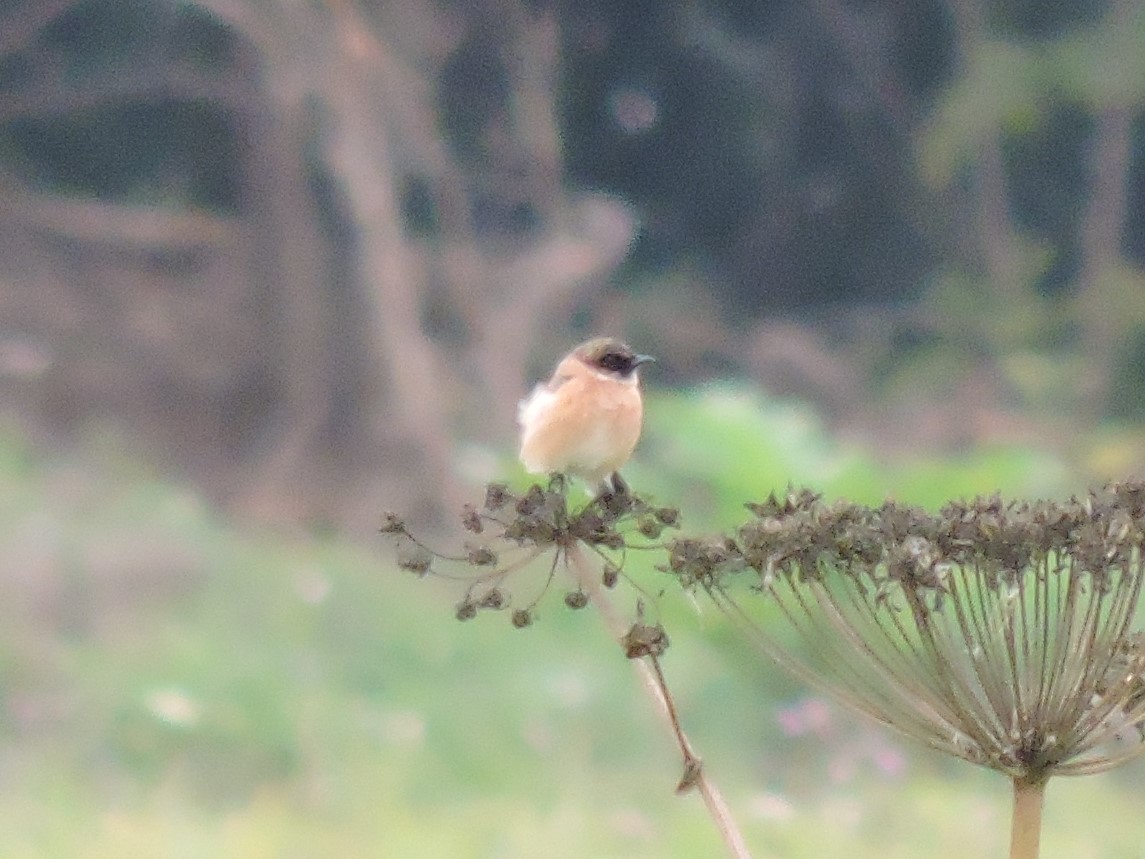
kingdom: Animalia
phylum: Chordata
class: Aves
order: Passeriformes
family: Muscicapidae
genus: Saxicola
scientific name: Saxicola maurus
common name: Siberian stonechat
